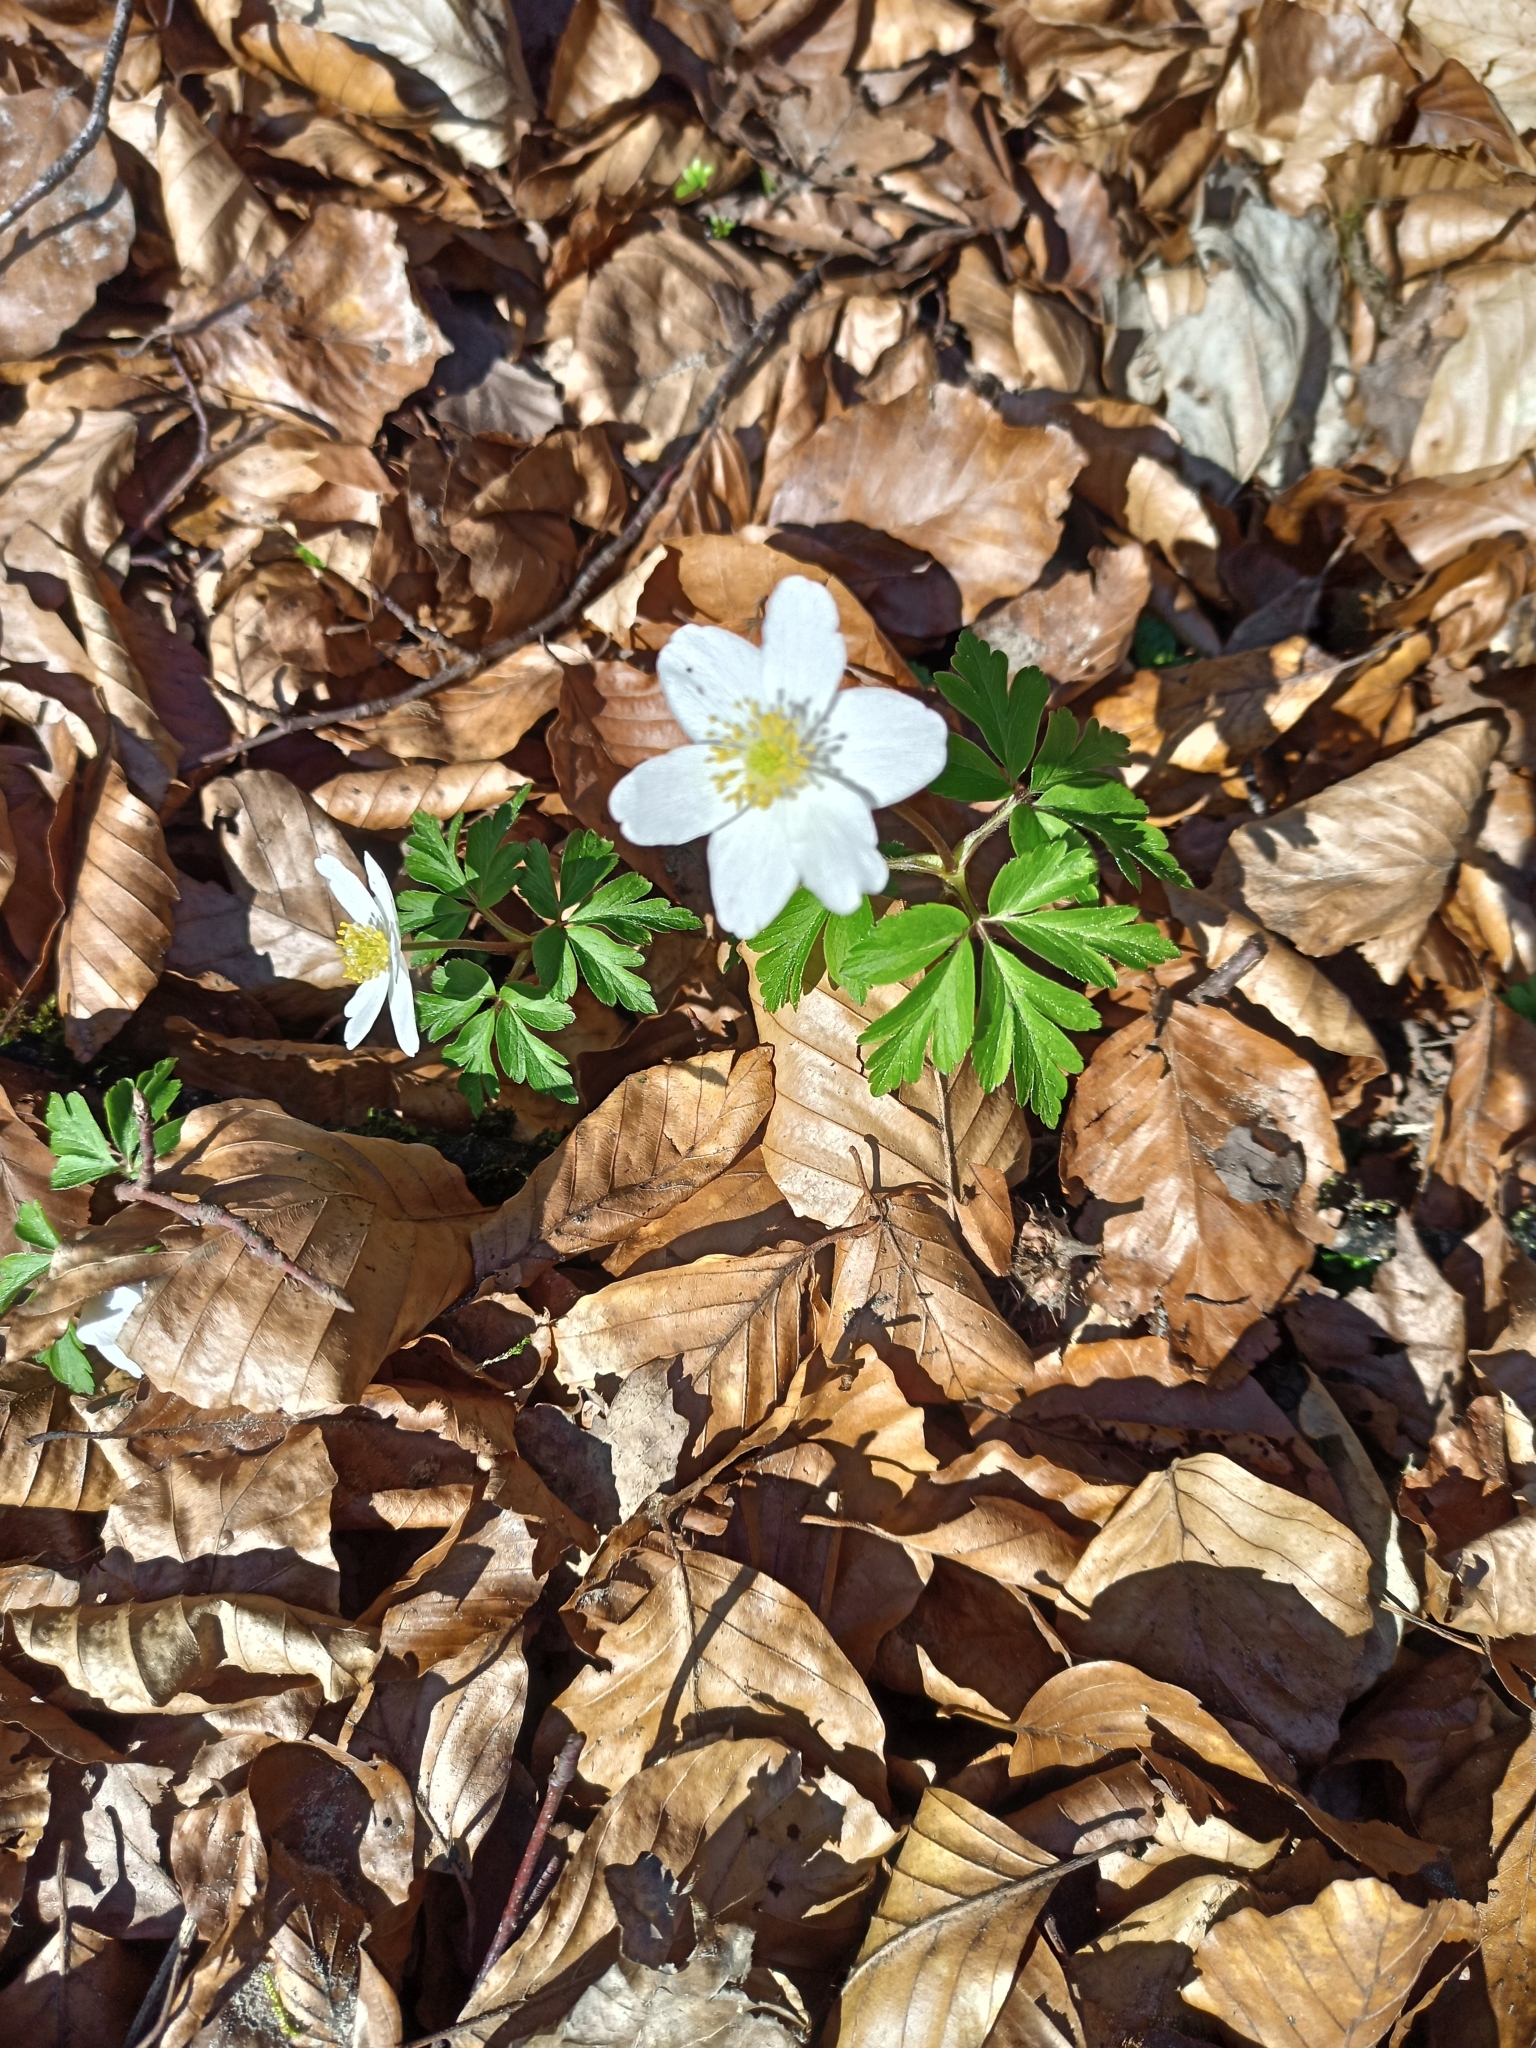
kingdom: Plantae
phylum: Tracheophyta
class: Magnoliopsida
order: Ranunculales
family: Ranunculaceae
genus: Anemone
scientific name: Anemone nemorosa
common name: Wood anemone
